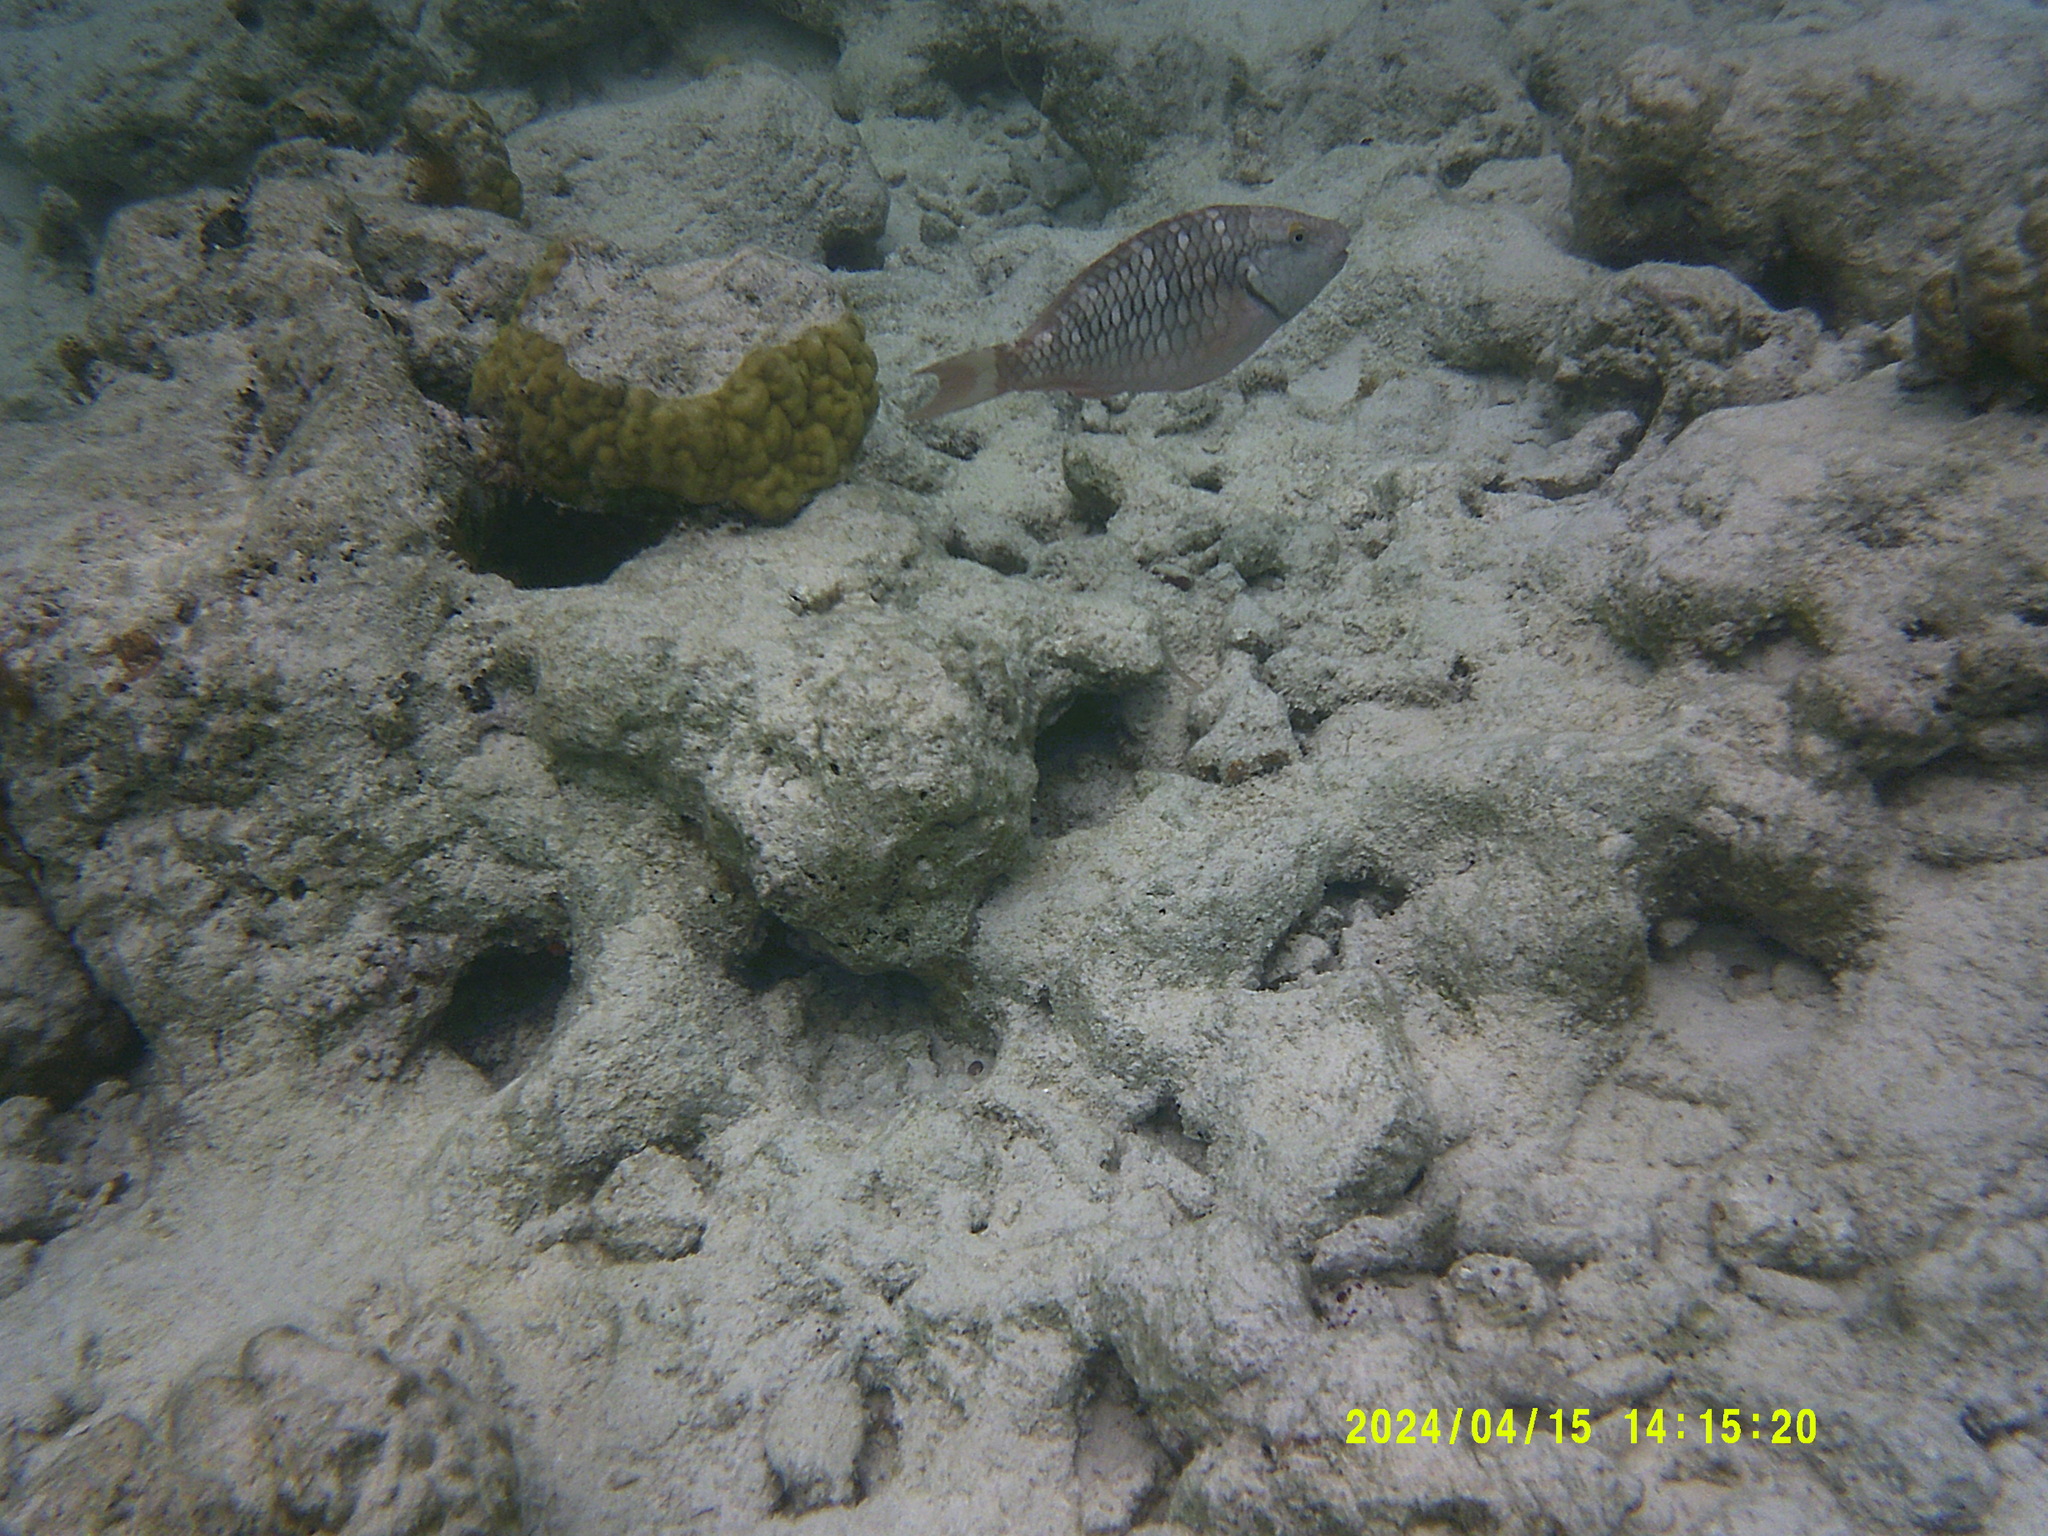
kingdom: Animalia
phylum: Chordata
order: Perciformes
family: Scaridae
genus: Sparisoma
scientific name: Sparisoma viride
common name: Stoplight parrotfish
